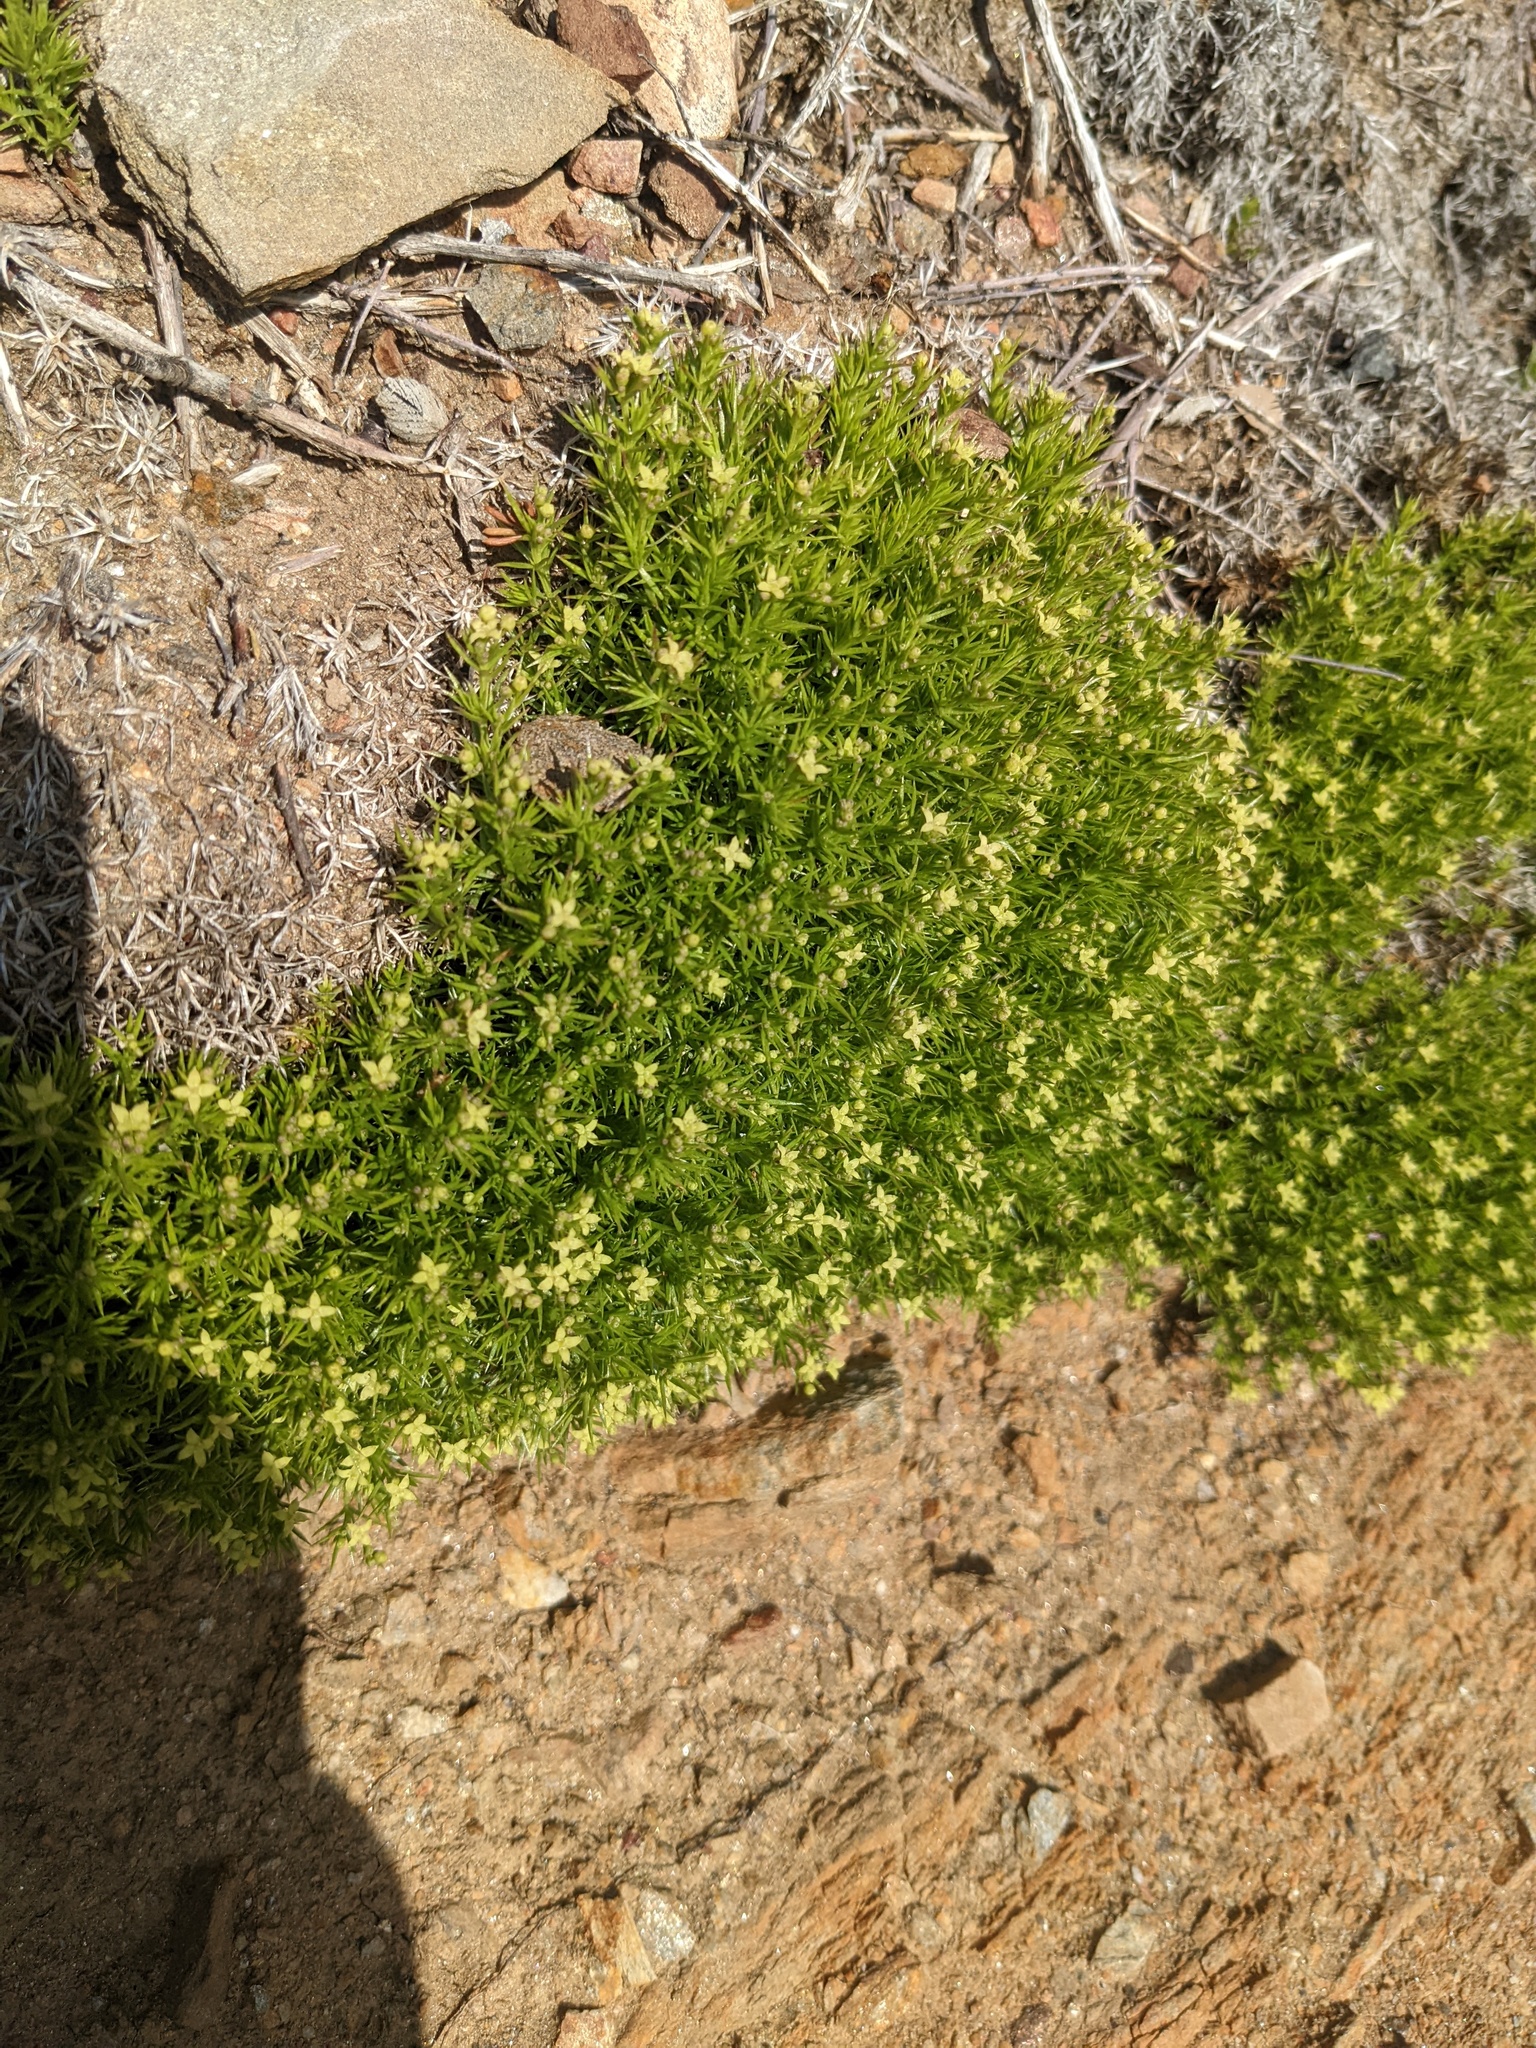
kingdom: Plantae
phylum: Tracheophyta
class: Magnoliopsida
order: Gentianales
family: Rubiaceae
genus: Galium
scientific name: Galium andrewsii
